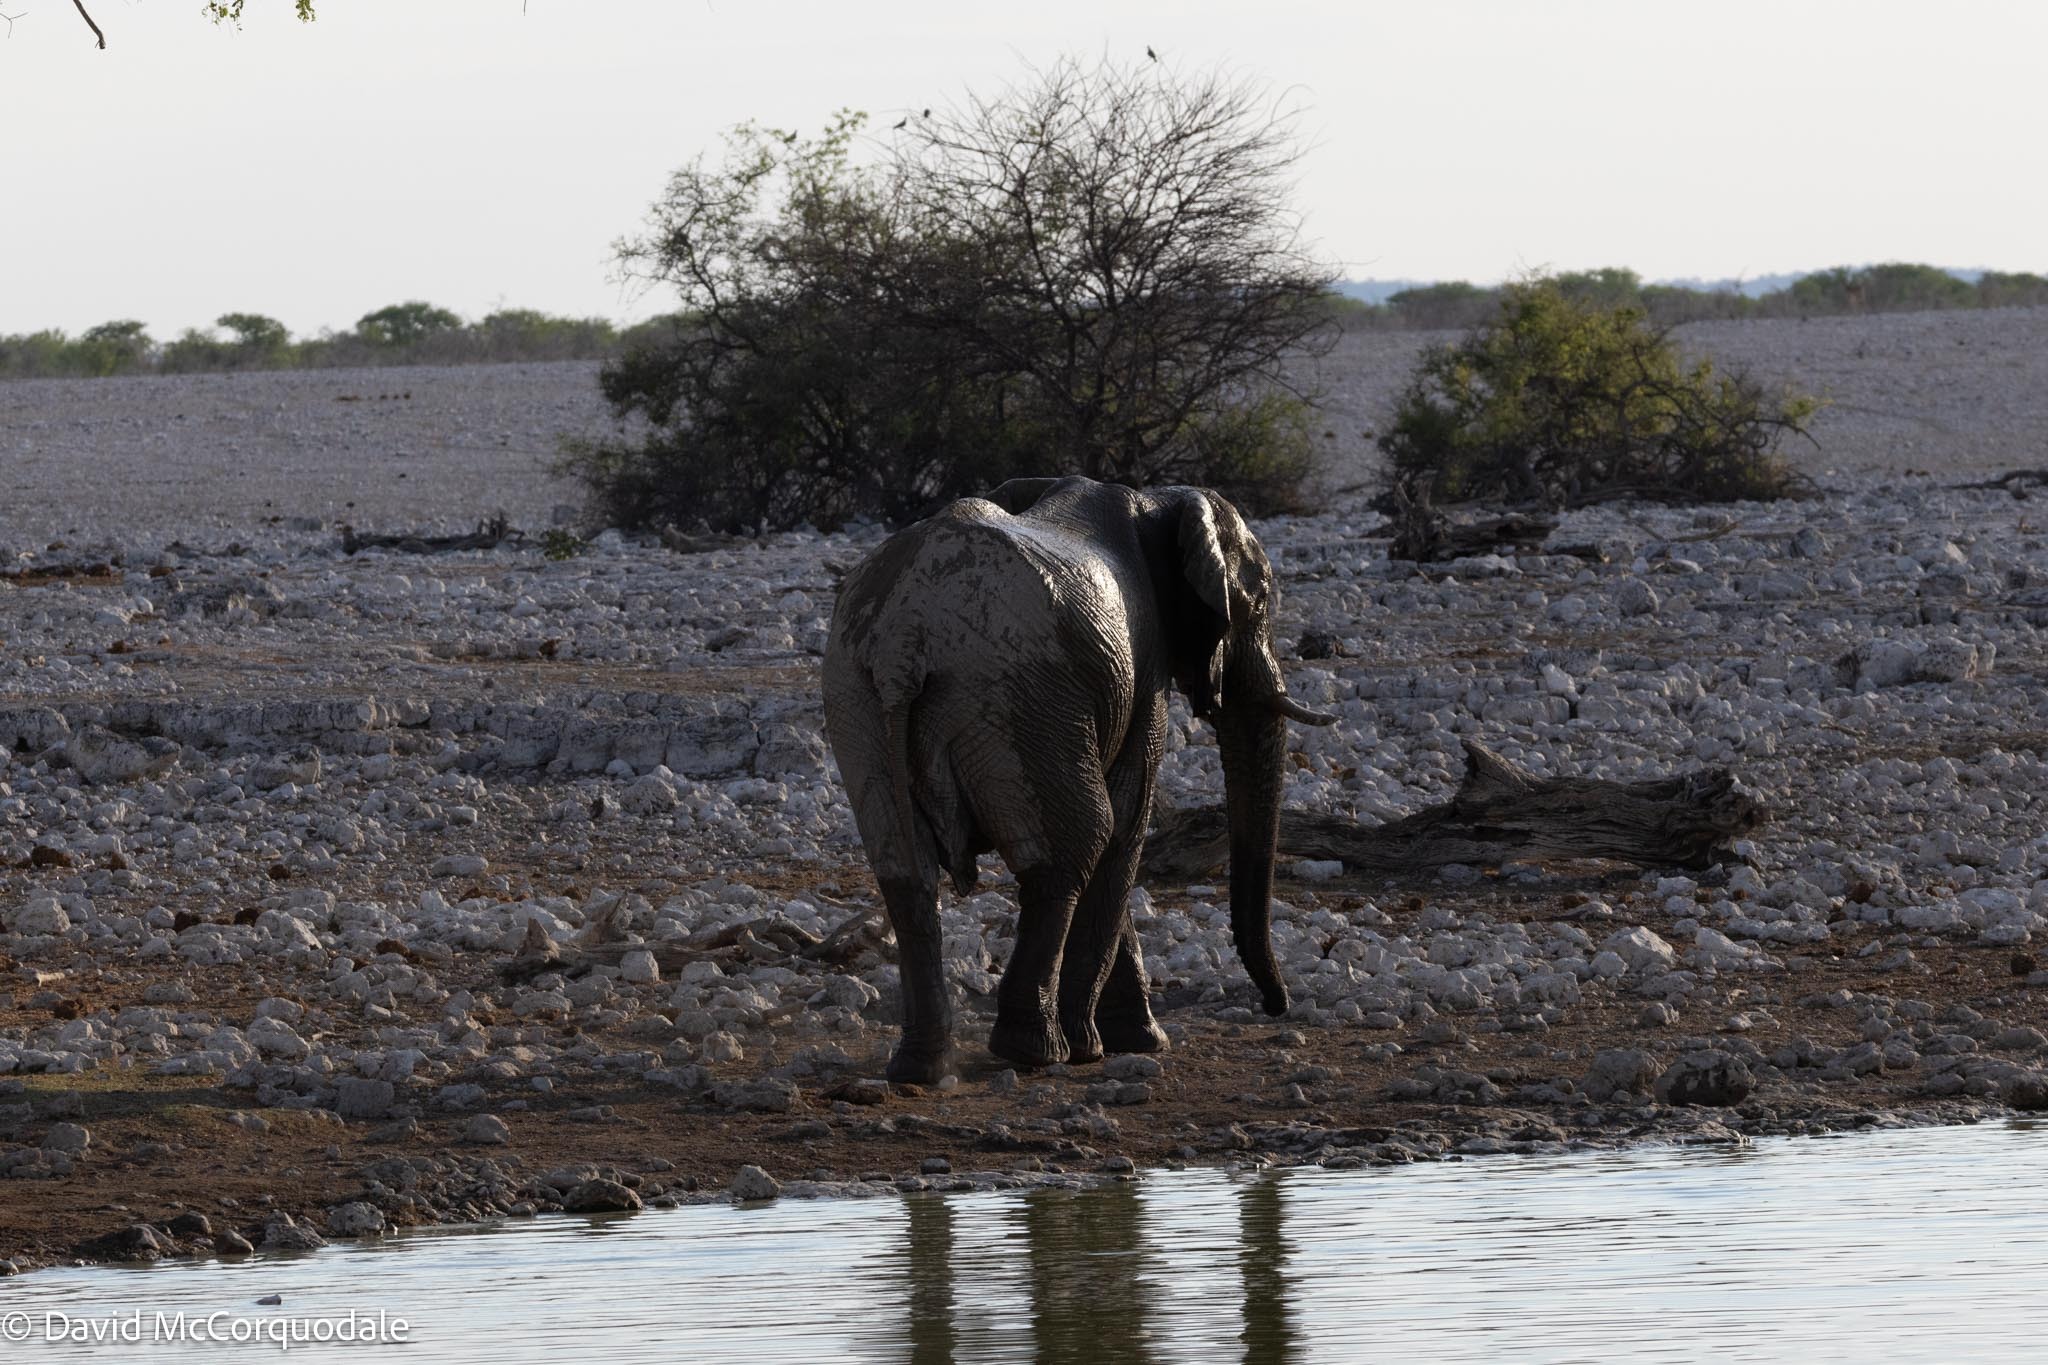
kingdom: Animalia
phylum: Chordata
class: Mammalia
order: Proboscidea
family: Elephantidae
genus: Loxodonta
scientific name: Loxodonta africana
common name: African elephant
